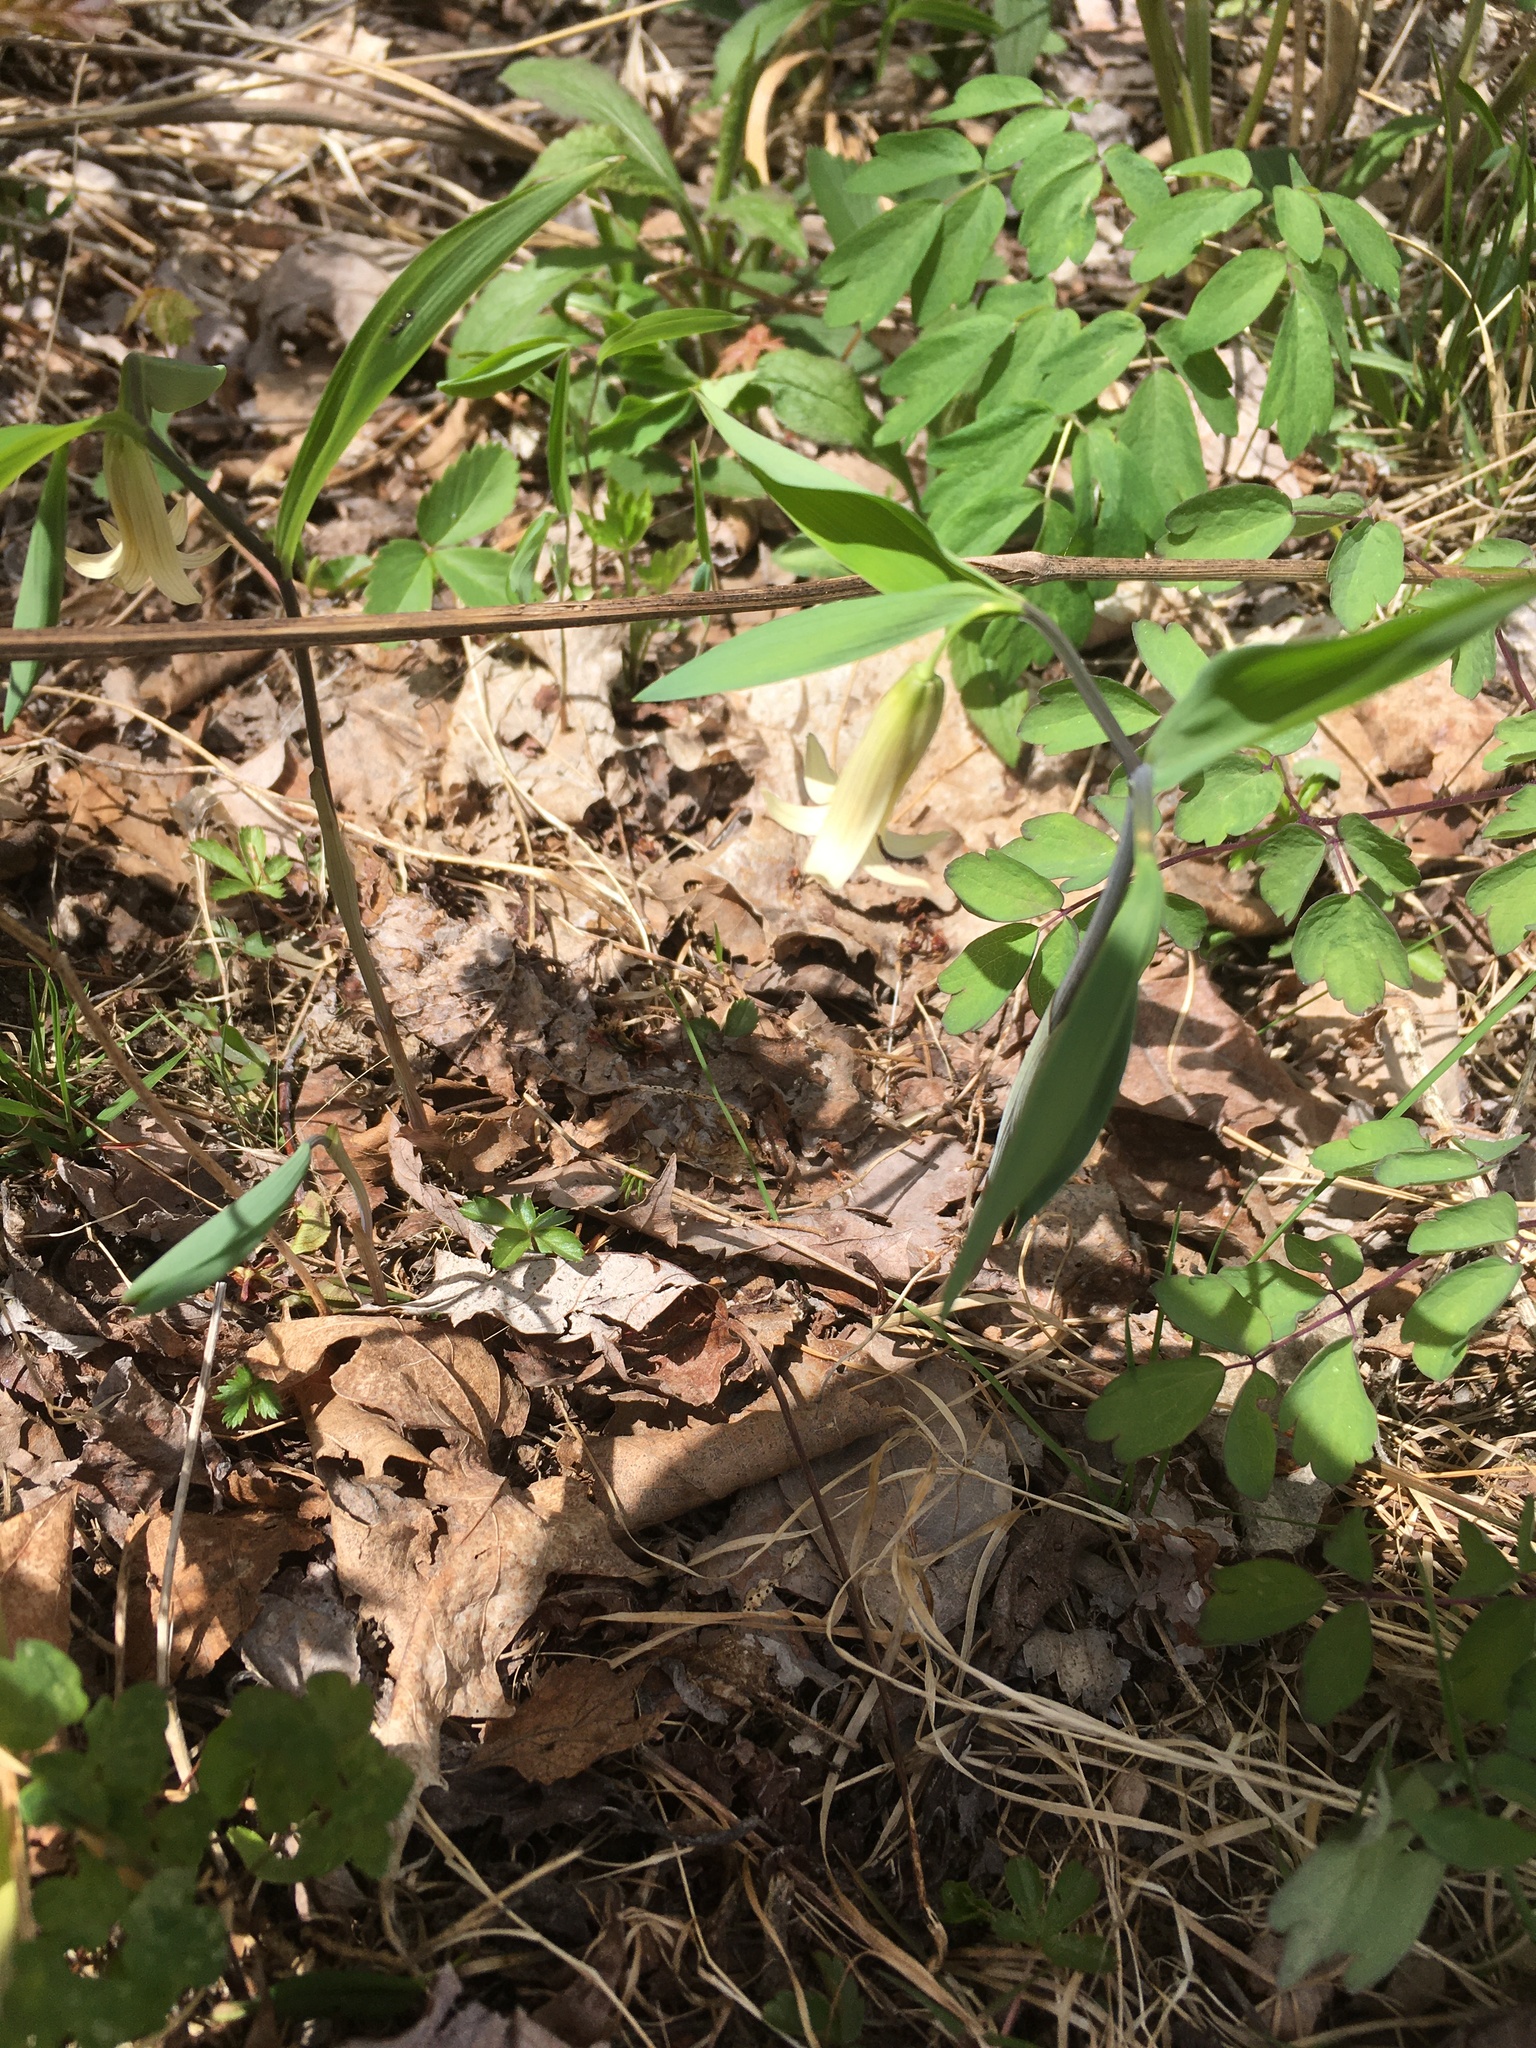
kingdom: Plantae
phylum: Tracheophyta
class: Liliopsida
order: Liliales
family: Colchicaceae
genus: Uvularia
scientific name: Uvularia sessilifolia
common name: Straw-lily
